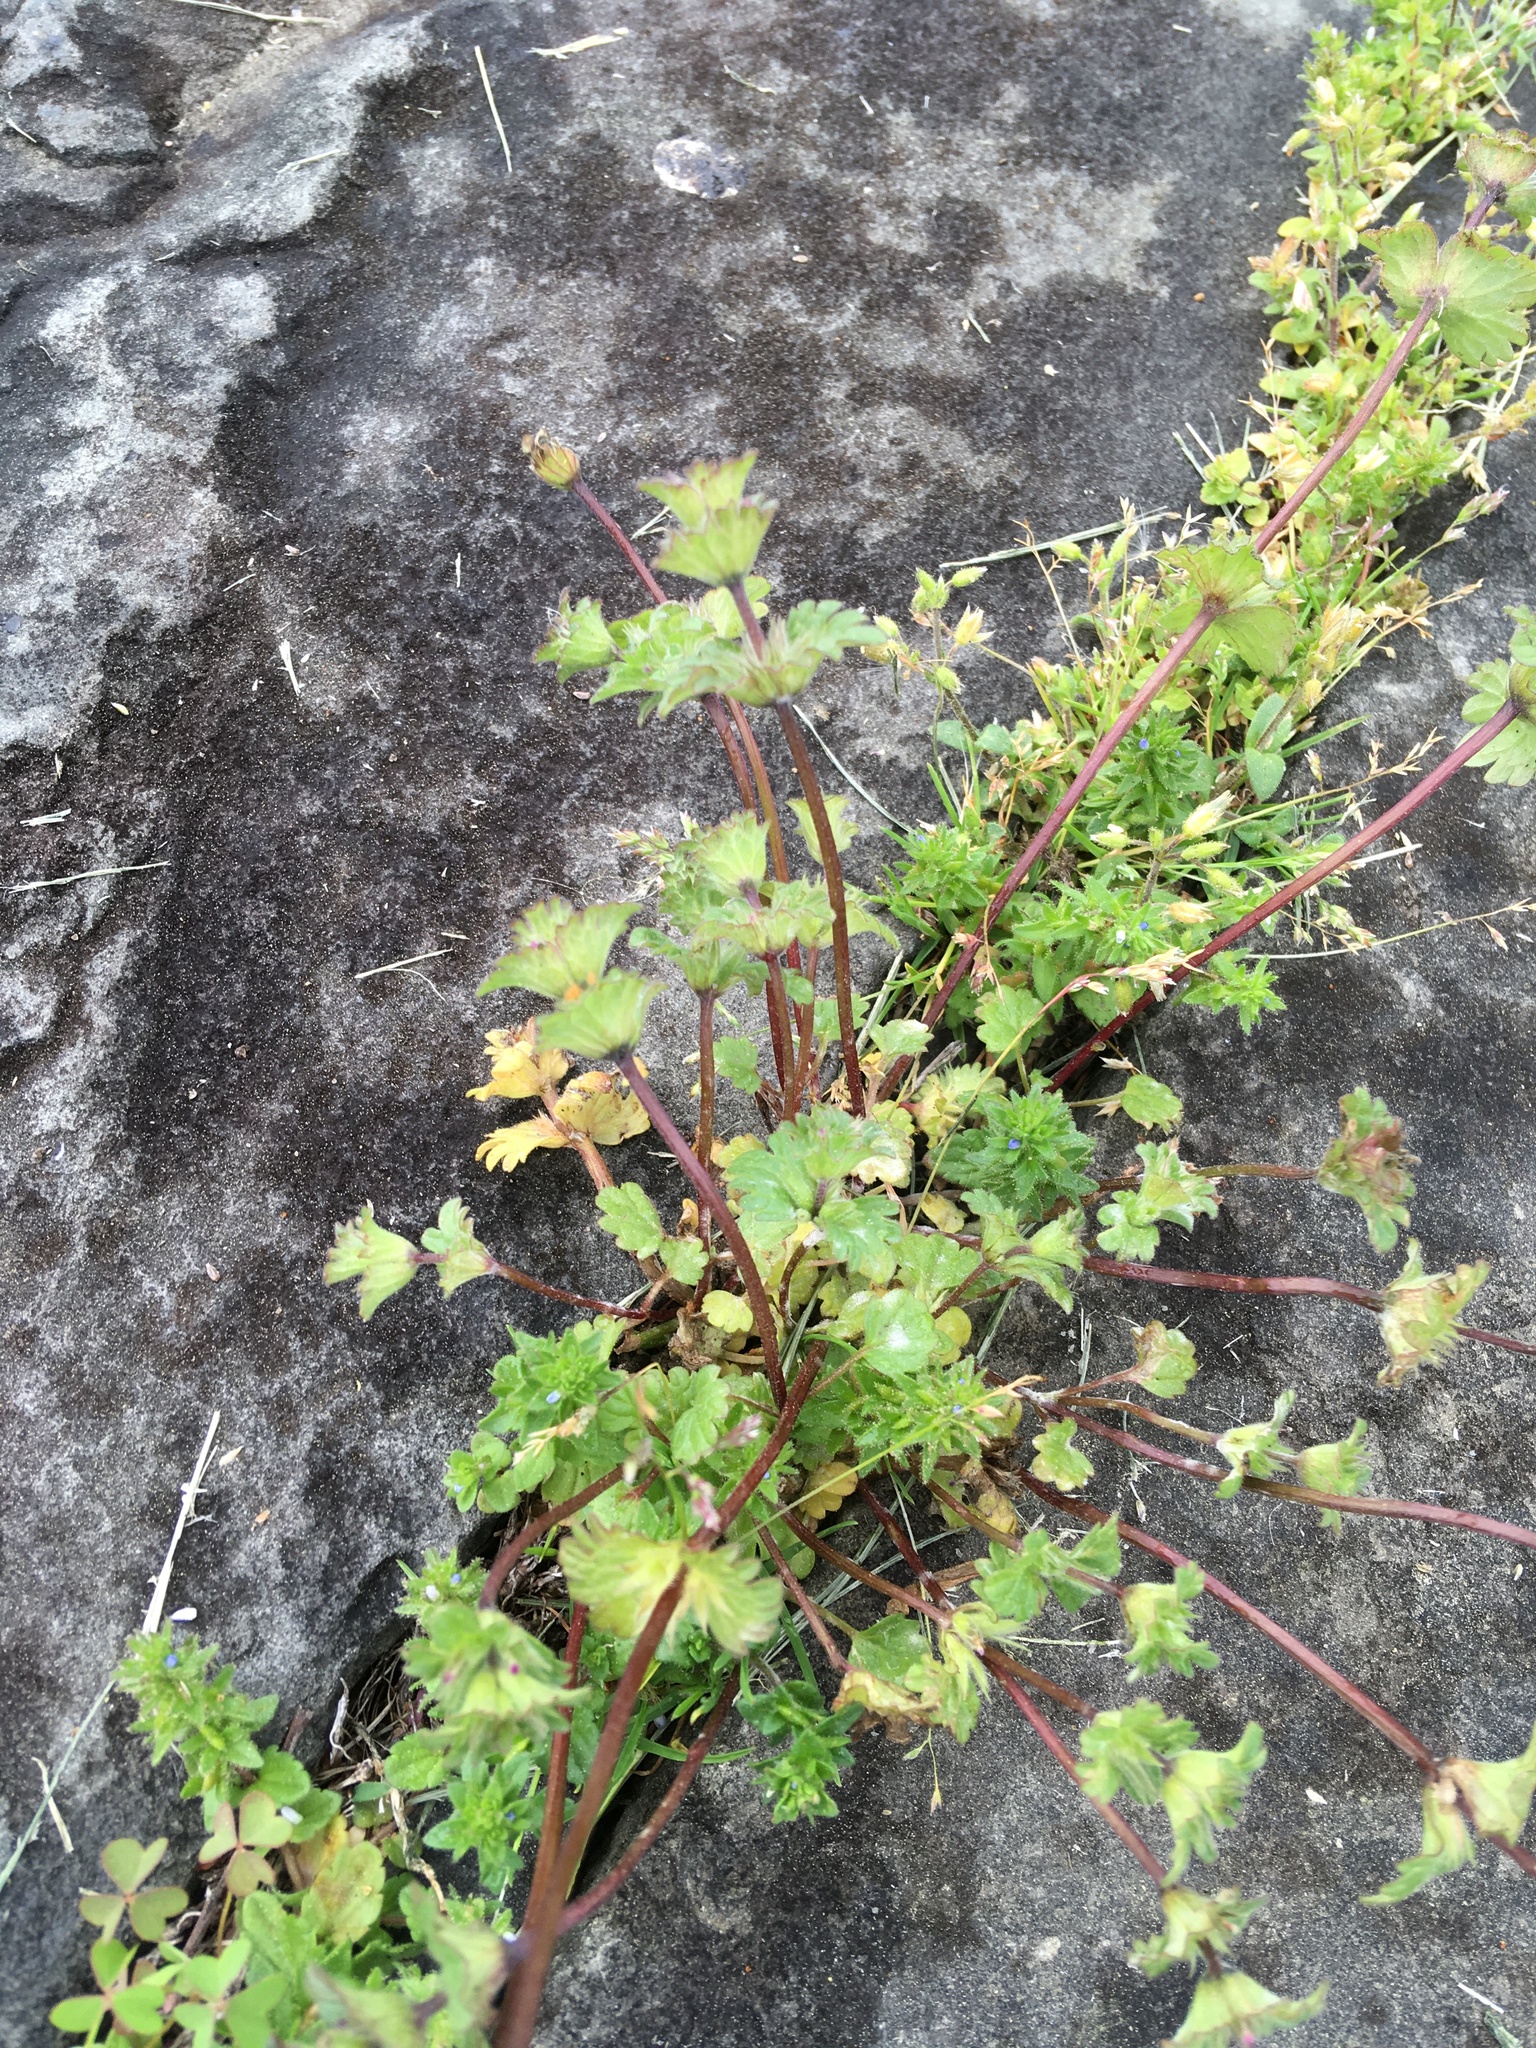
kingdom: Plantae
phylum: Tracheophyta
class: Magnoliopsida
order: Lamiales
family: Lamiaceae
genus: Lamium
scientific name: Lamium amplexicaule
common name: Henbit dead-nettle
